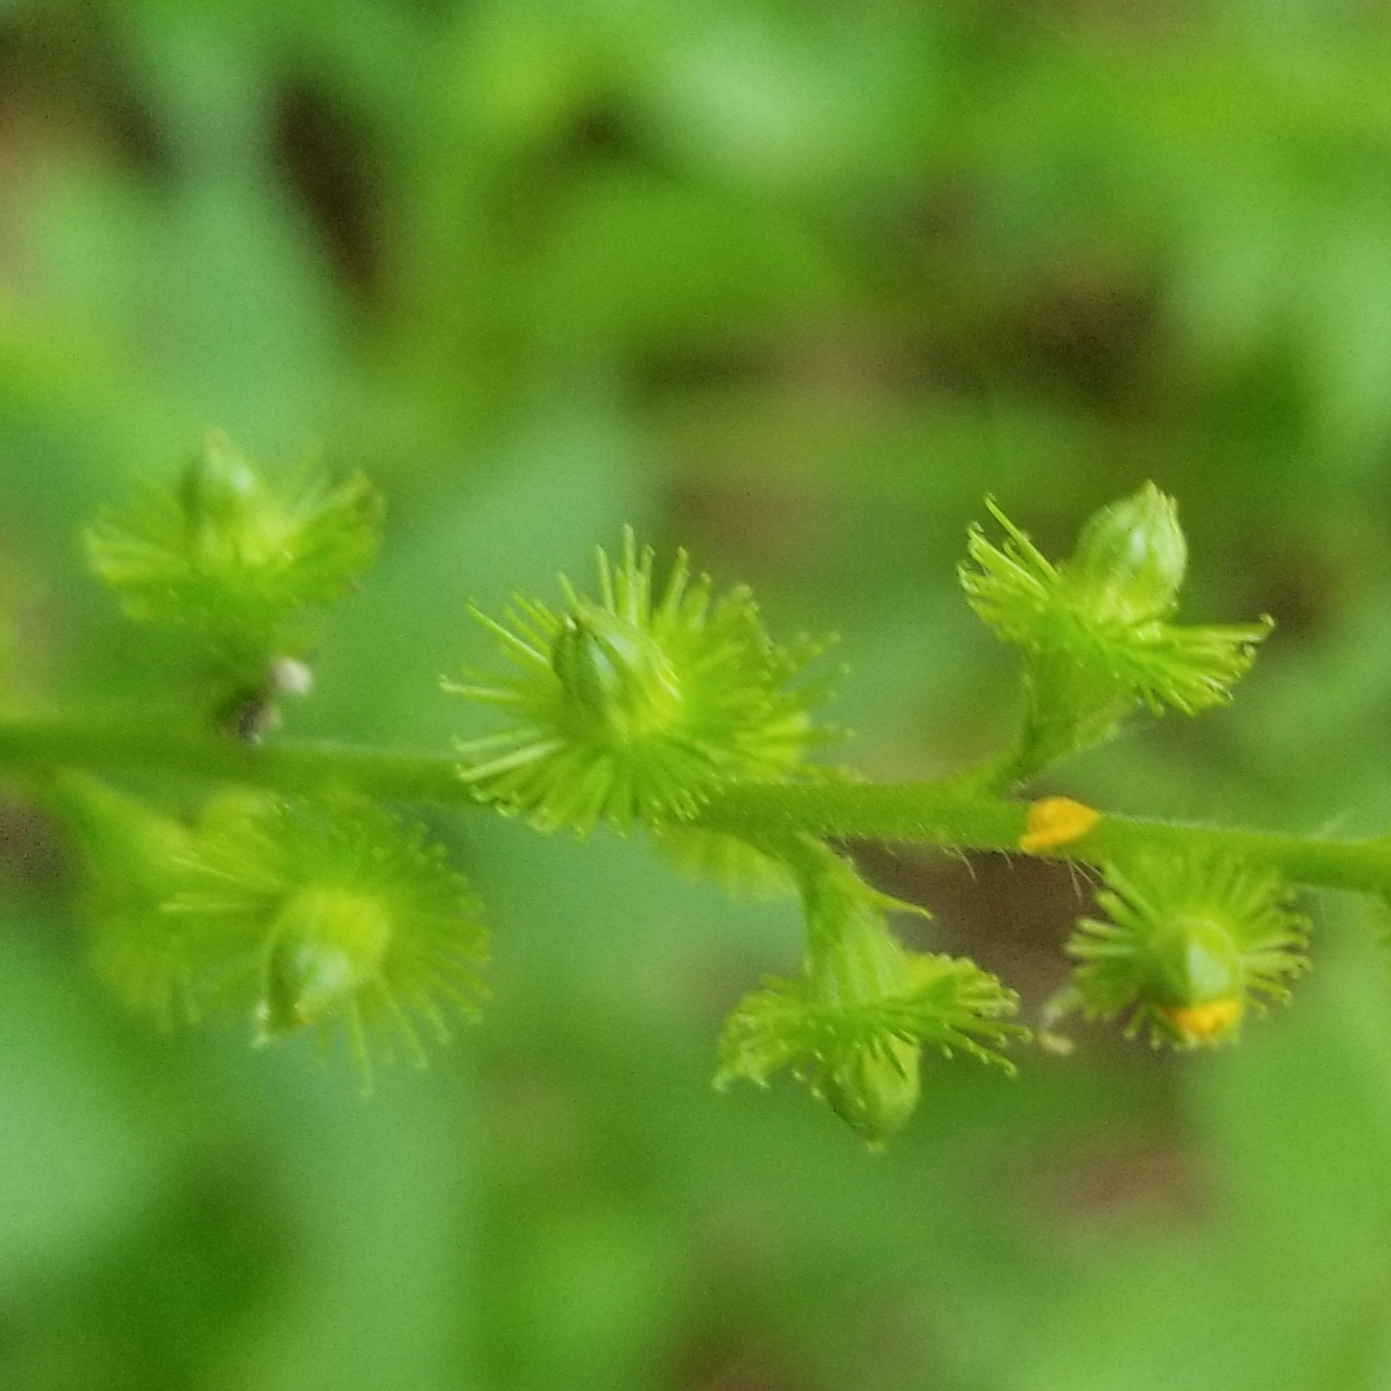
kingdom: Plantae
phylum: Tracheophyta
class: Magnoliopsida
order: Rosales
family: Rosaceae
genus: Agrimonia
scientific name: Agrimonia gryposepala
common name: Common agrimony
